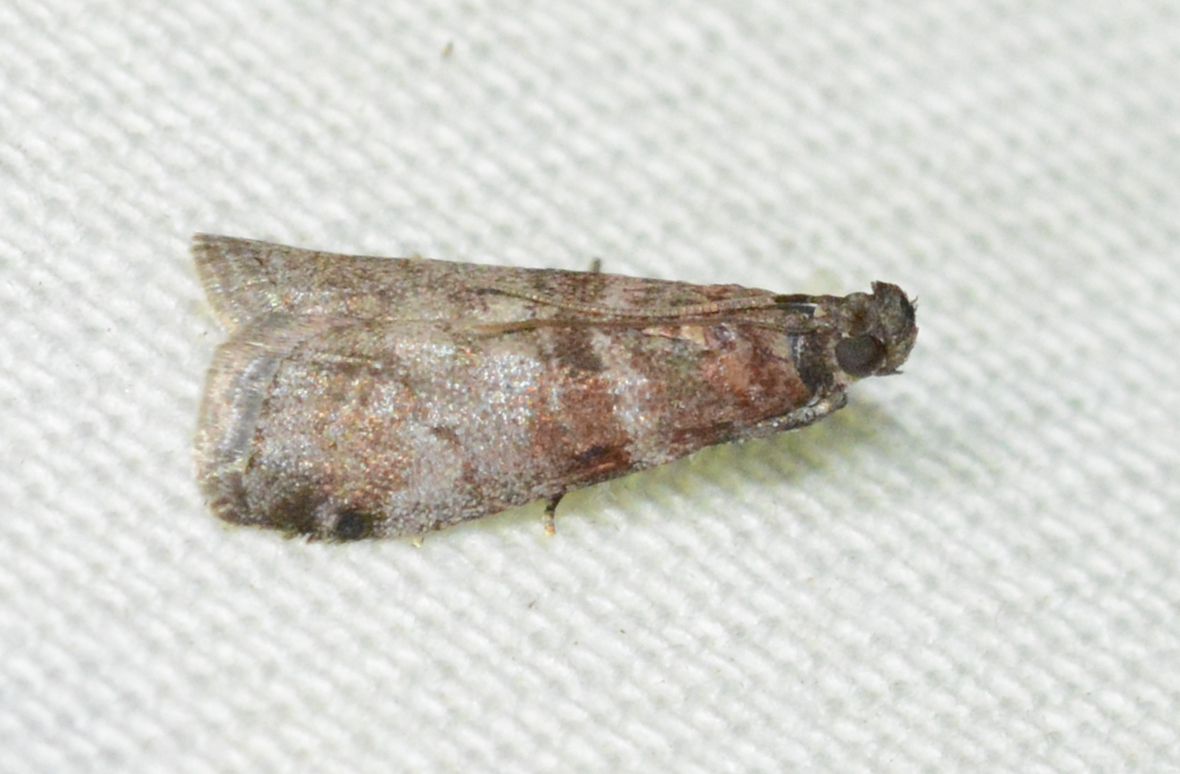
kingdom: Animalia
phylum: Arthropoda
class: Insecta
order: Lepidoptera
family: Pyralidae
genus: Sciota
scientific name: Sciota uvinella
